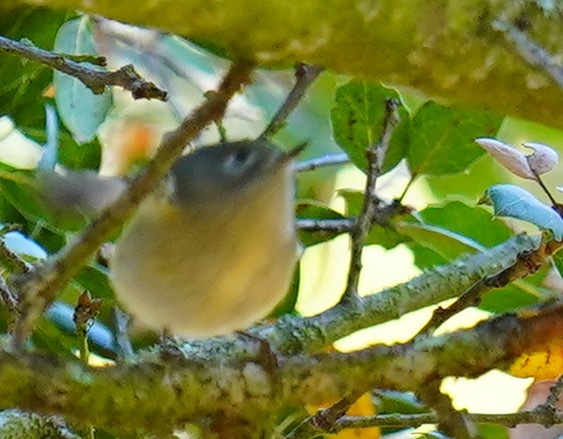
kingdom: Animalia
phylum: Chordata
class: Aves
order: Passeriformes
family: Regulidae
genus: Regulus
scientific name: Regulus calendula
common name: Ruby-crowned kinglet
